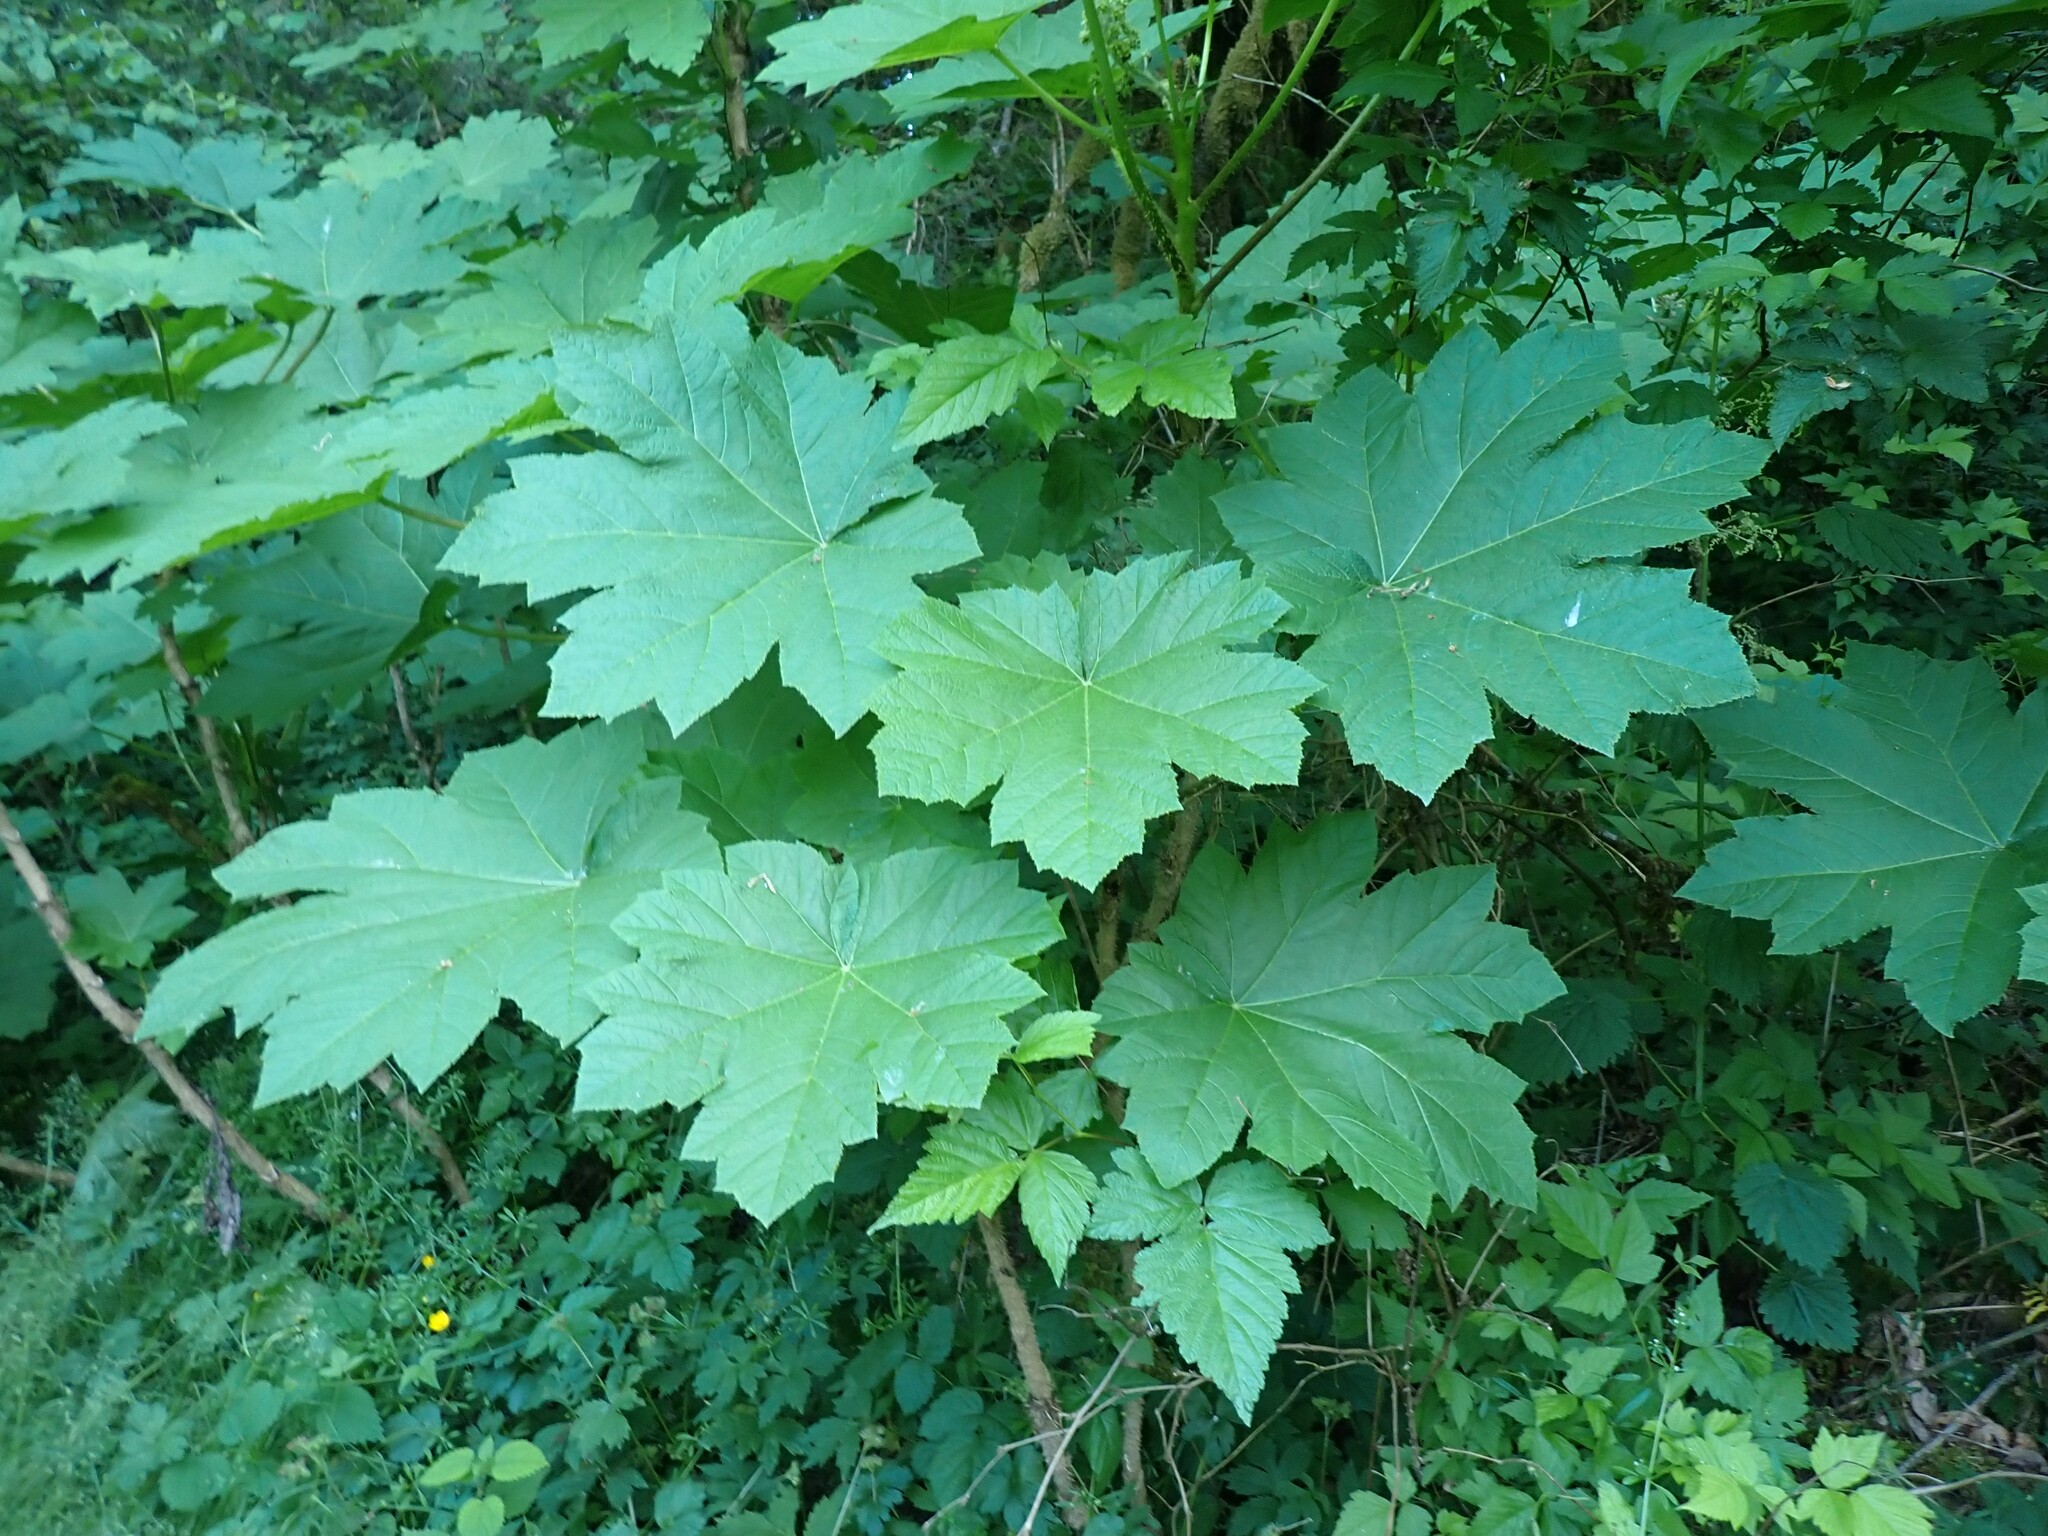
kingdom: Plantae
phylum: Tracheophyta
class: Magnoliopsida
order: Apiales
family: Araliaceae
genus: Oplopanax
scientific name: Oplopanax horridus
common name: Devil's walking-stick
